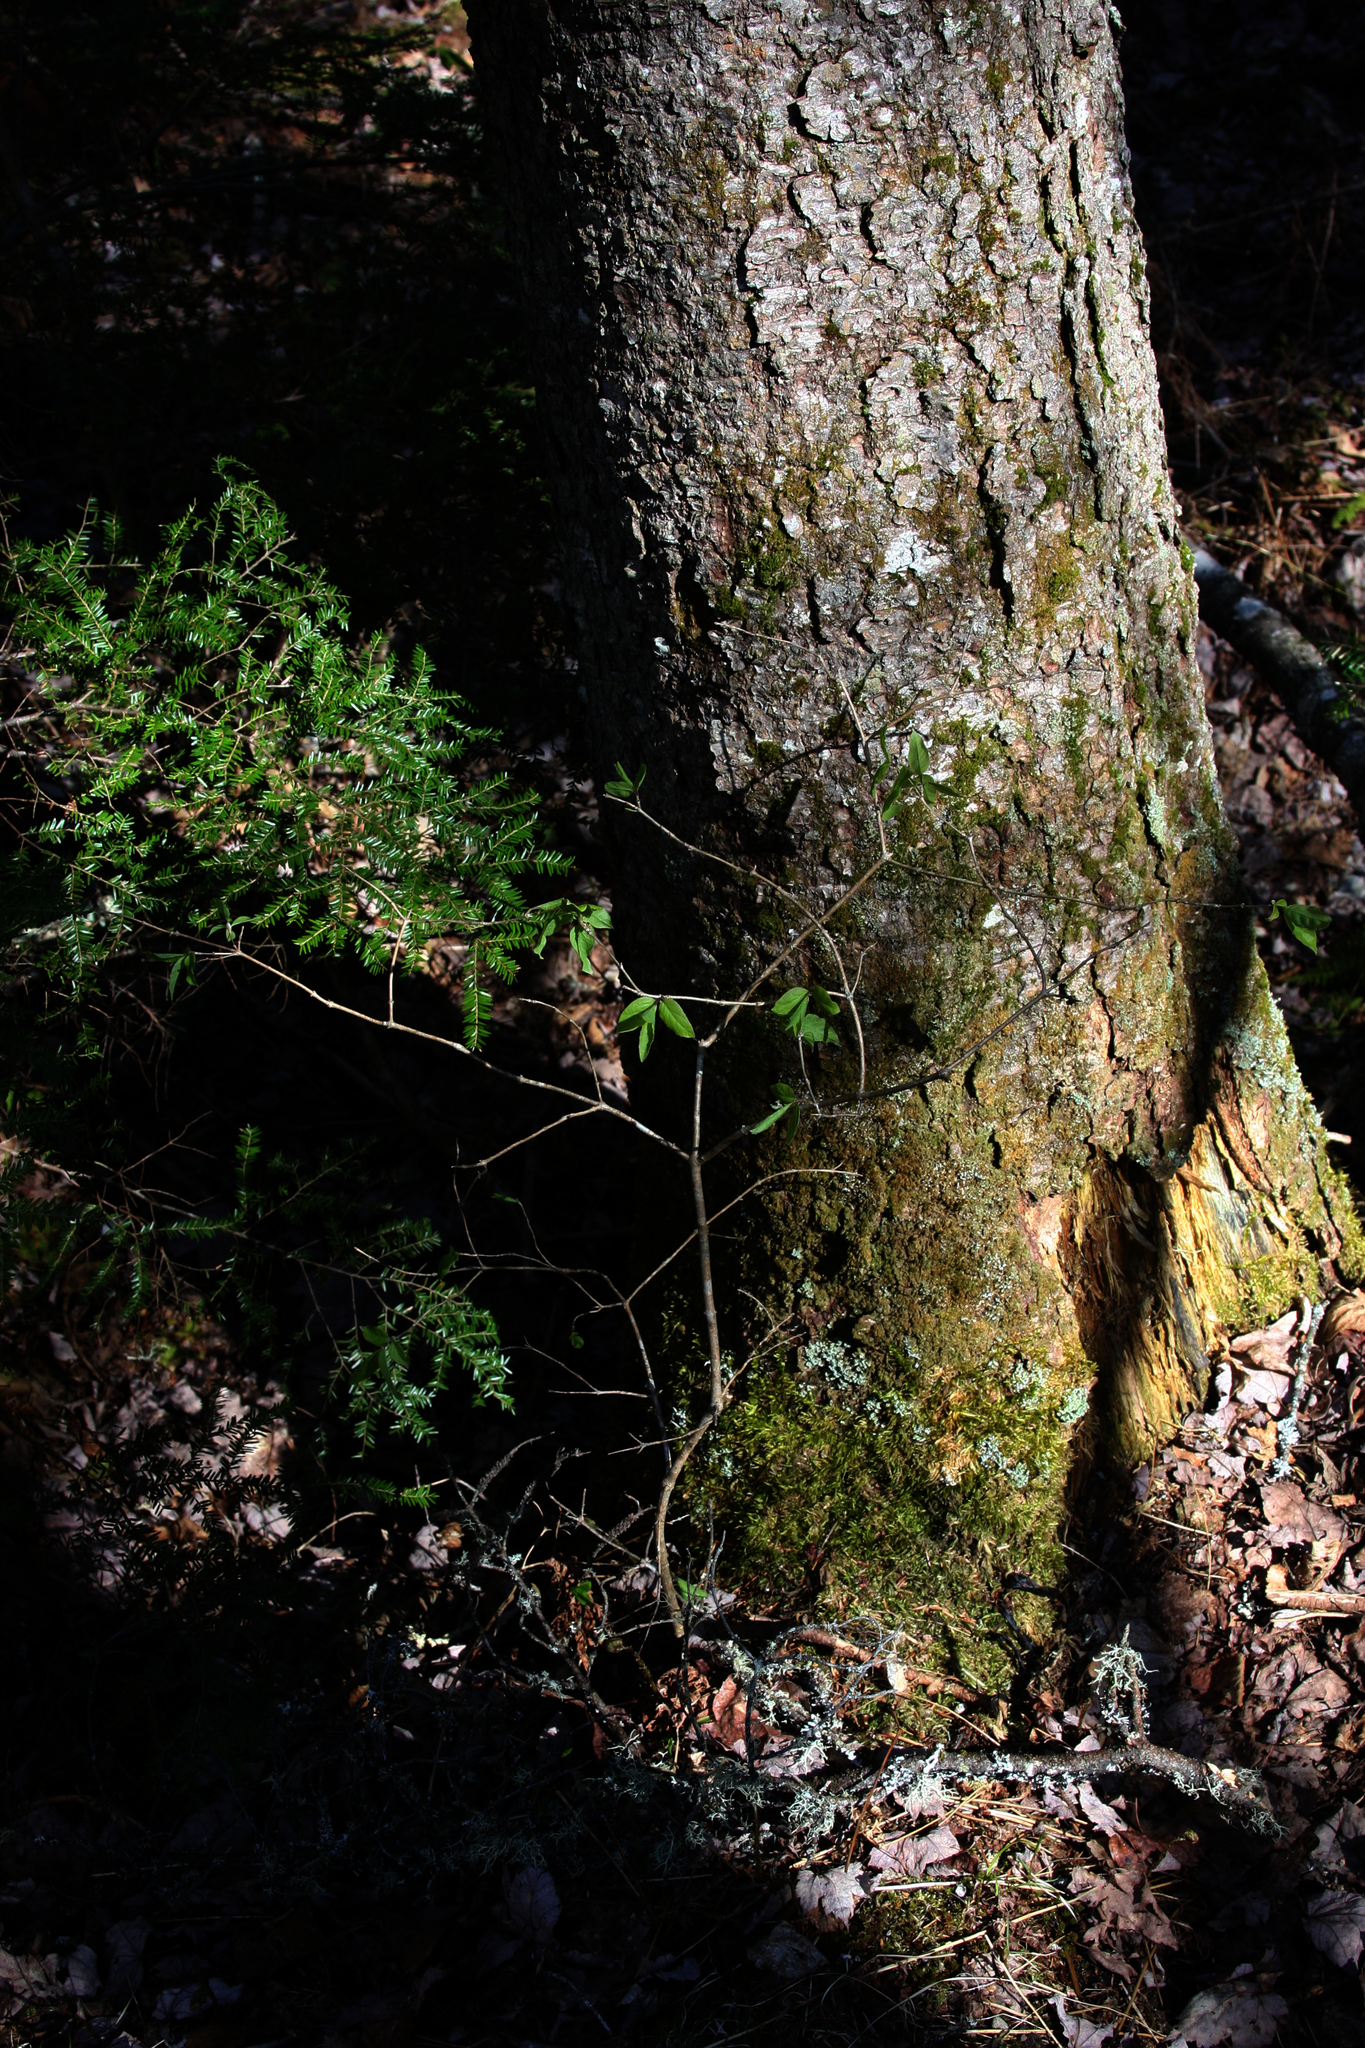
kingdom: Plantae
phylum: Tracheophyta
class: Magnoliopsida
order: Dipsacales
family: Caprifoliaceae
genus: Lonicera
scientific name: Lonicera canadensis
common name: American fly-honeysuckle
